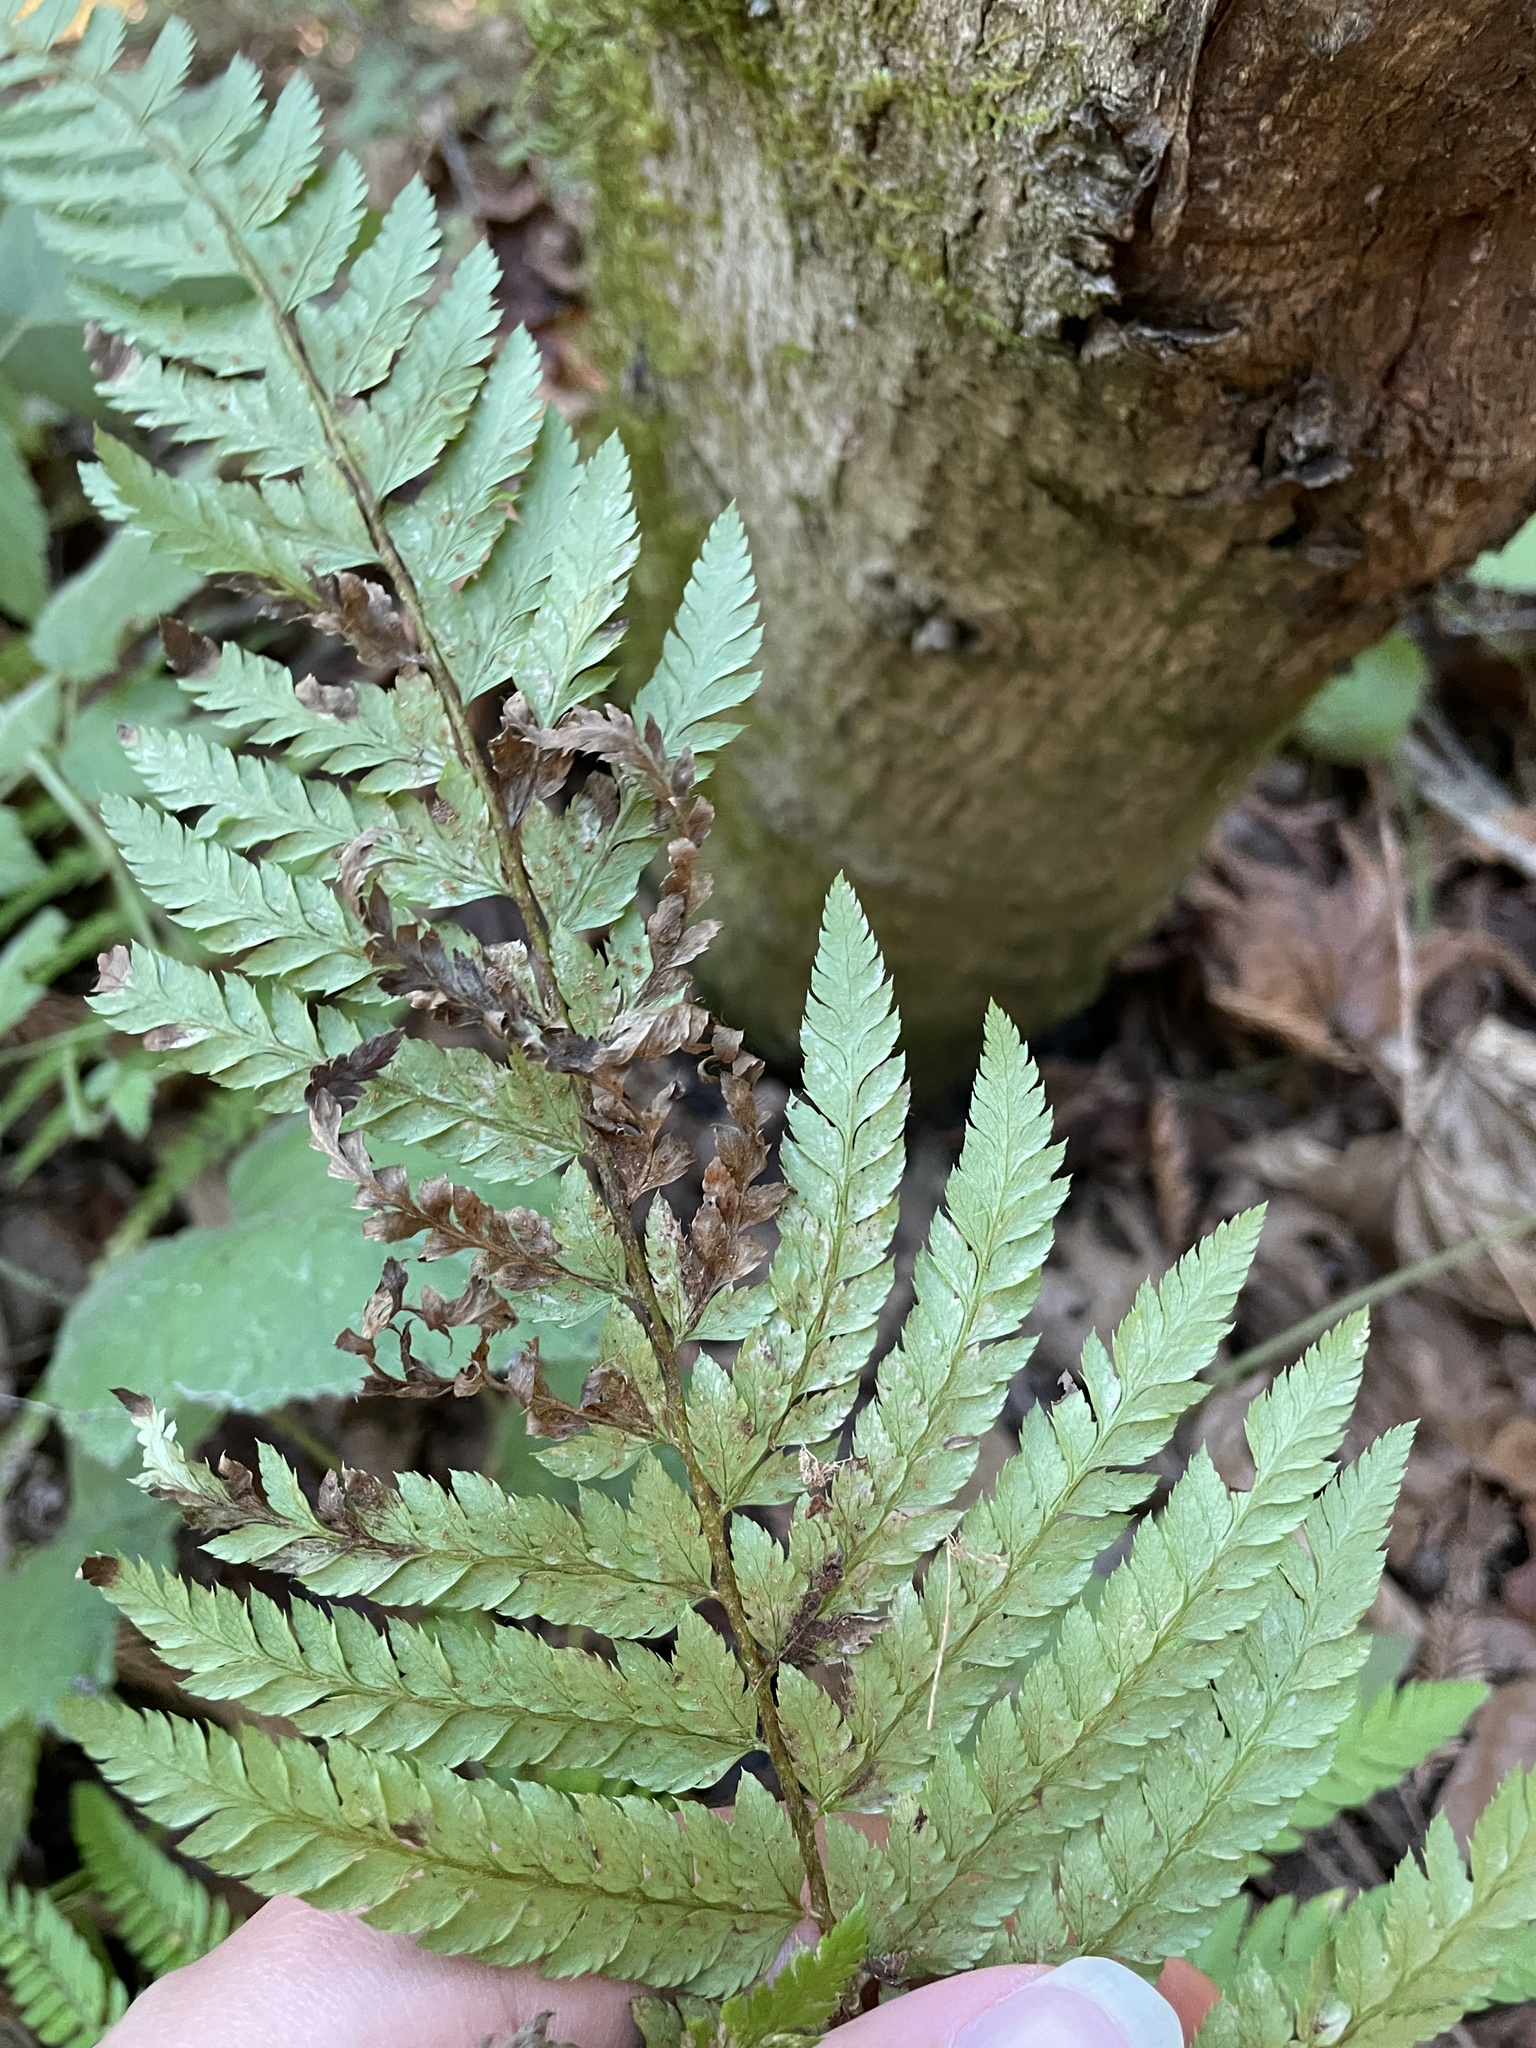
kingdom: Plantae
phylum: Tracheophyta
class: Polypodiopsida
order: Polypodiales
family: Dryopteridaceae
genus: Polystichum
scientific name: Polystichum dudleyi
